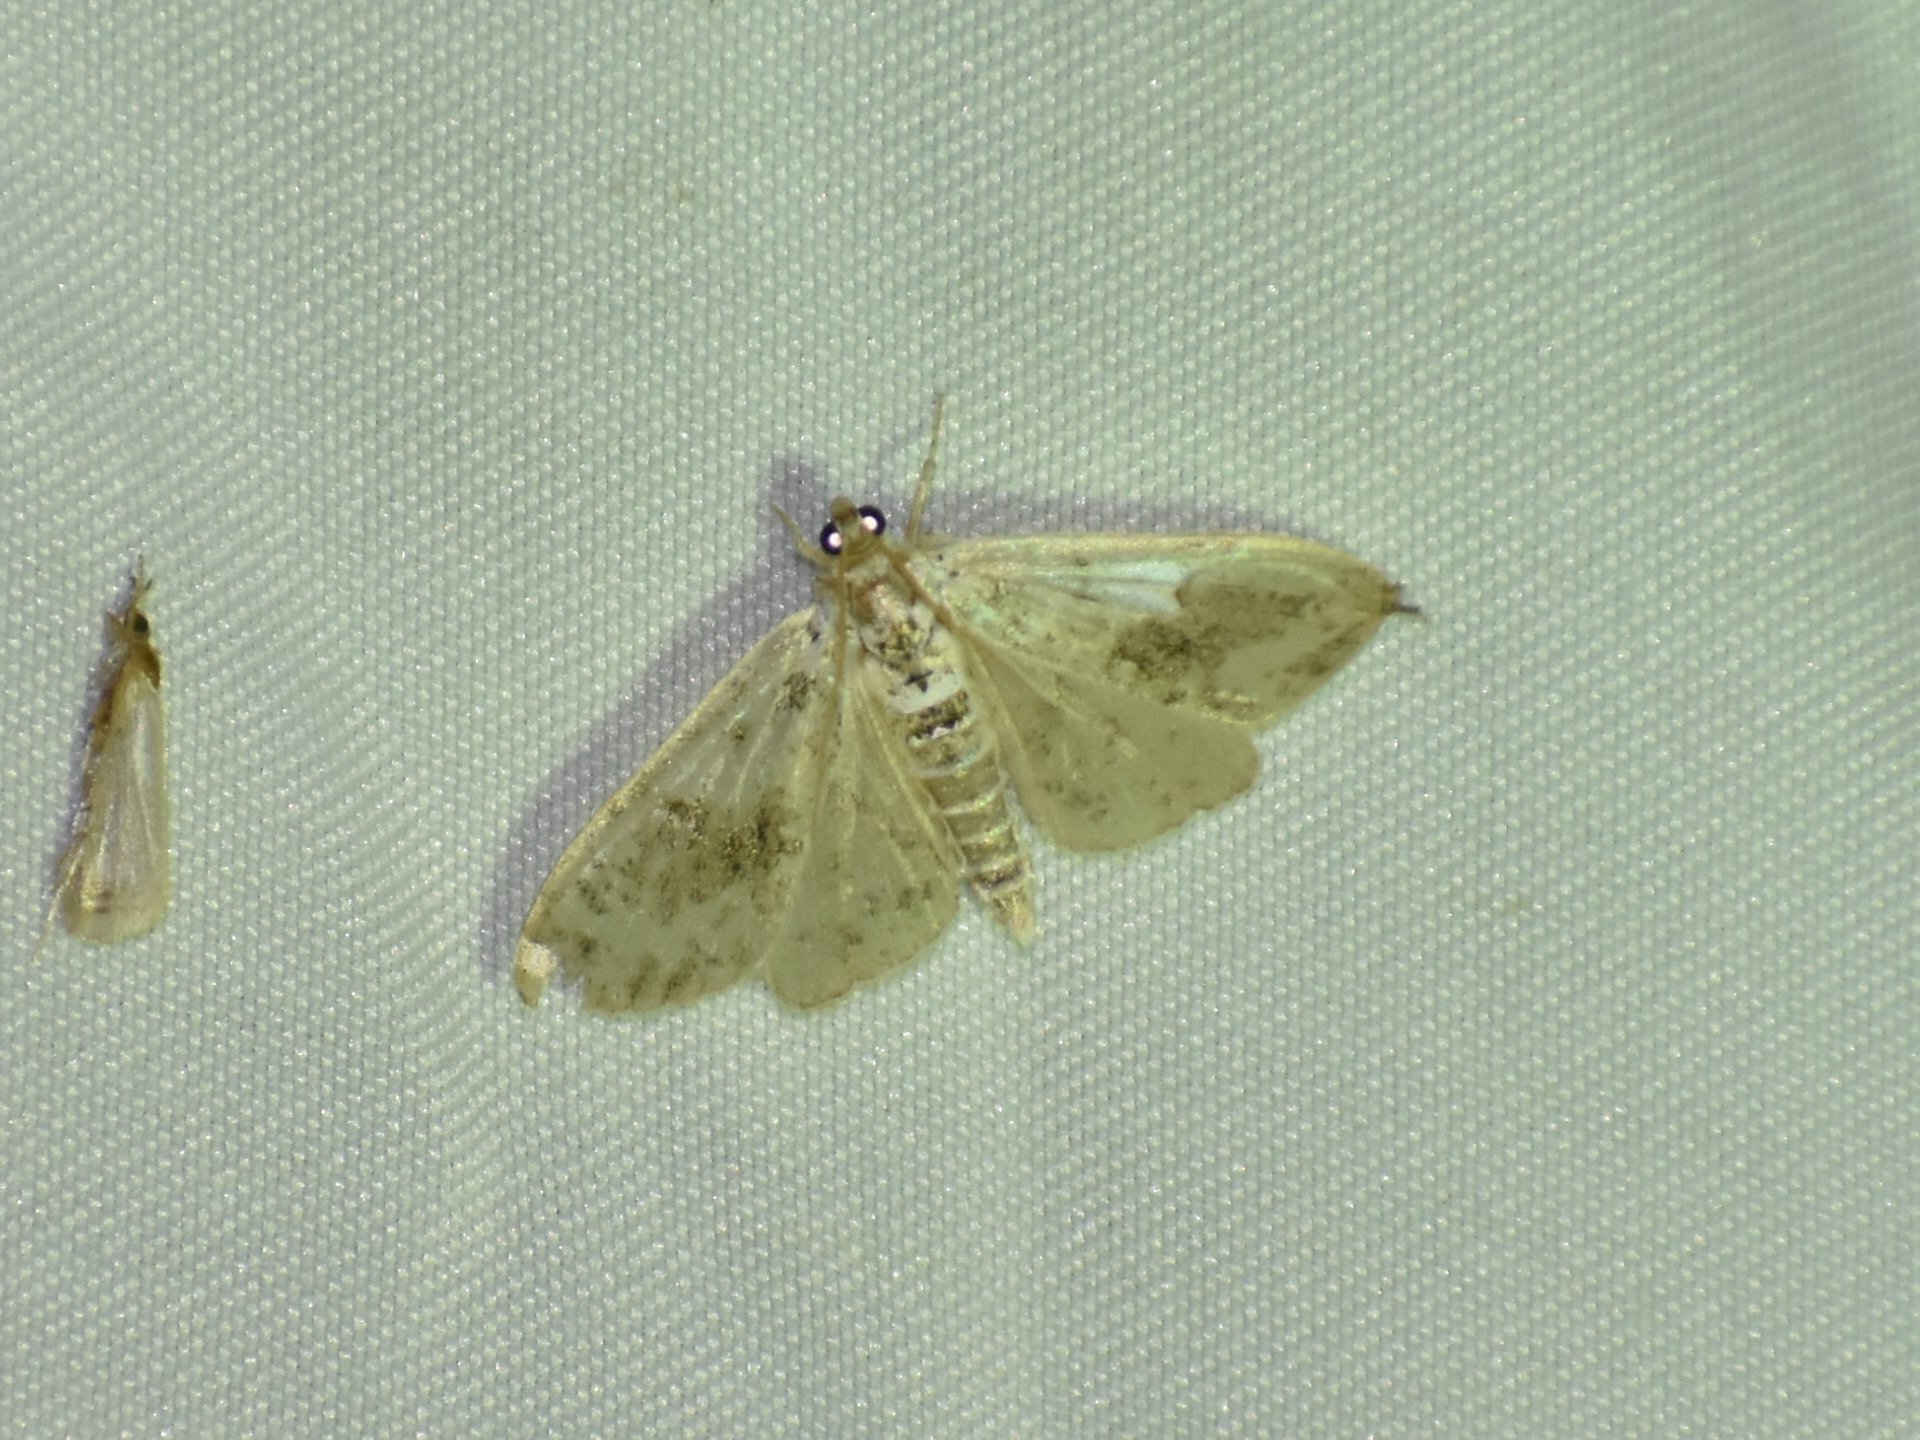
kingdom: Animalia
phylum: Arthropoda
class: Insecta
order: Lepidoptera
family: Crambidae
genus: Palpita
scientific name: Palpita magniferalis
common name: Splendid palpita moth
